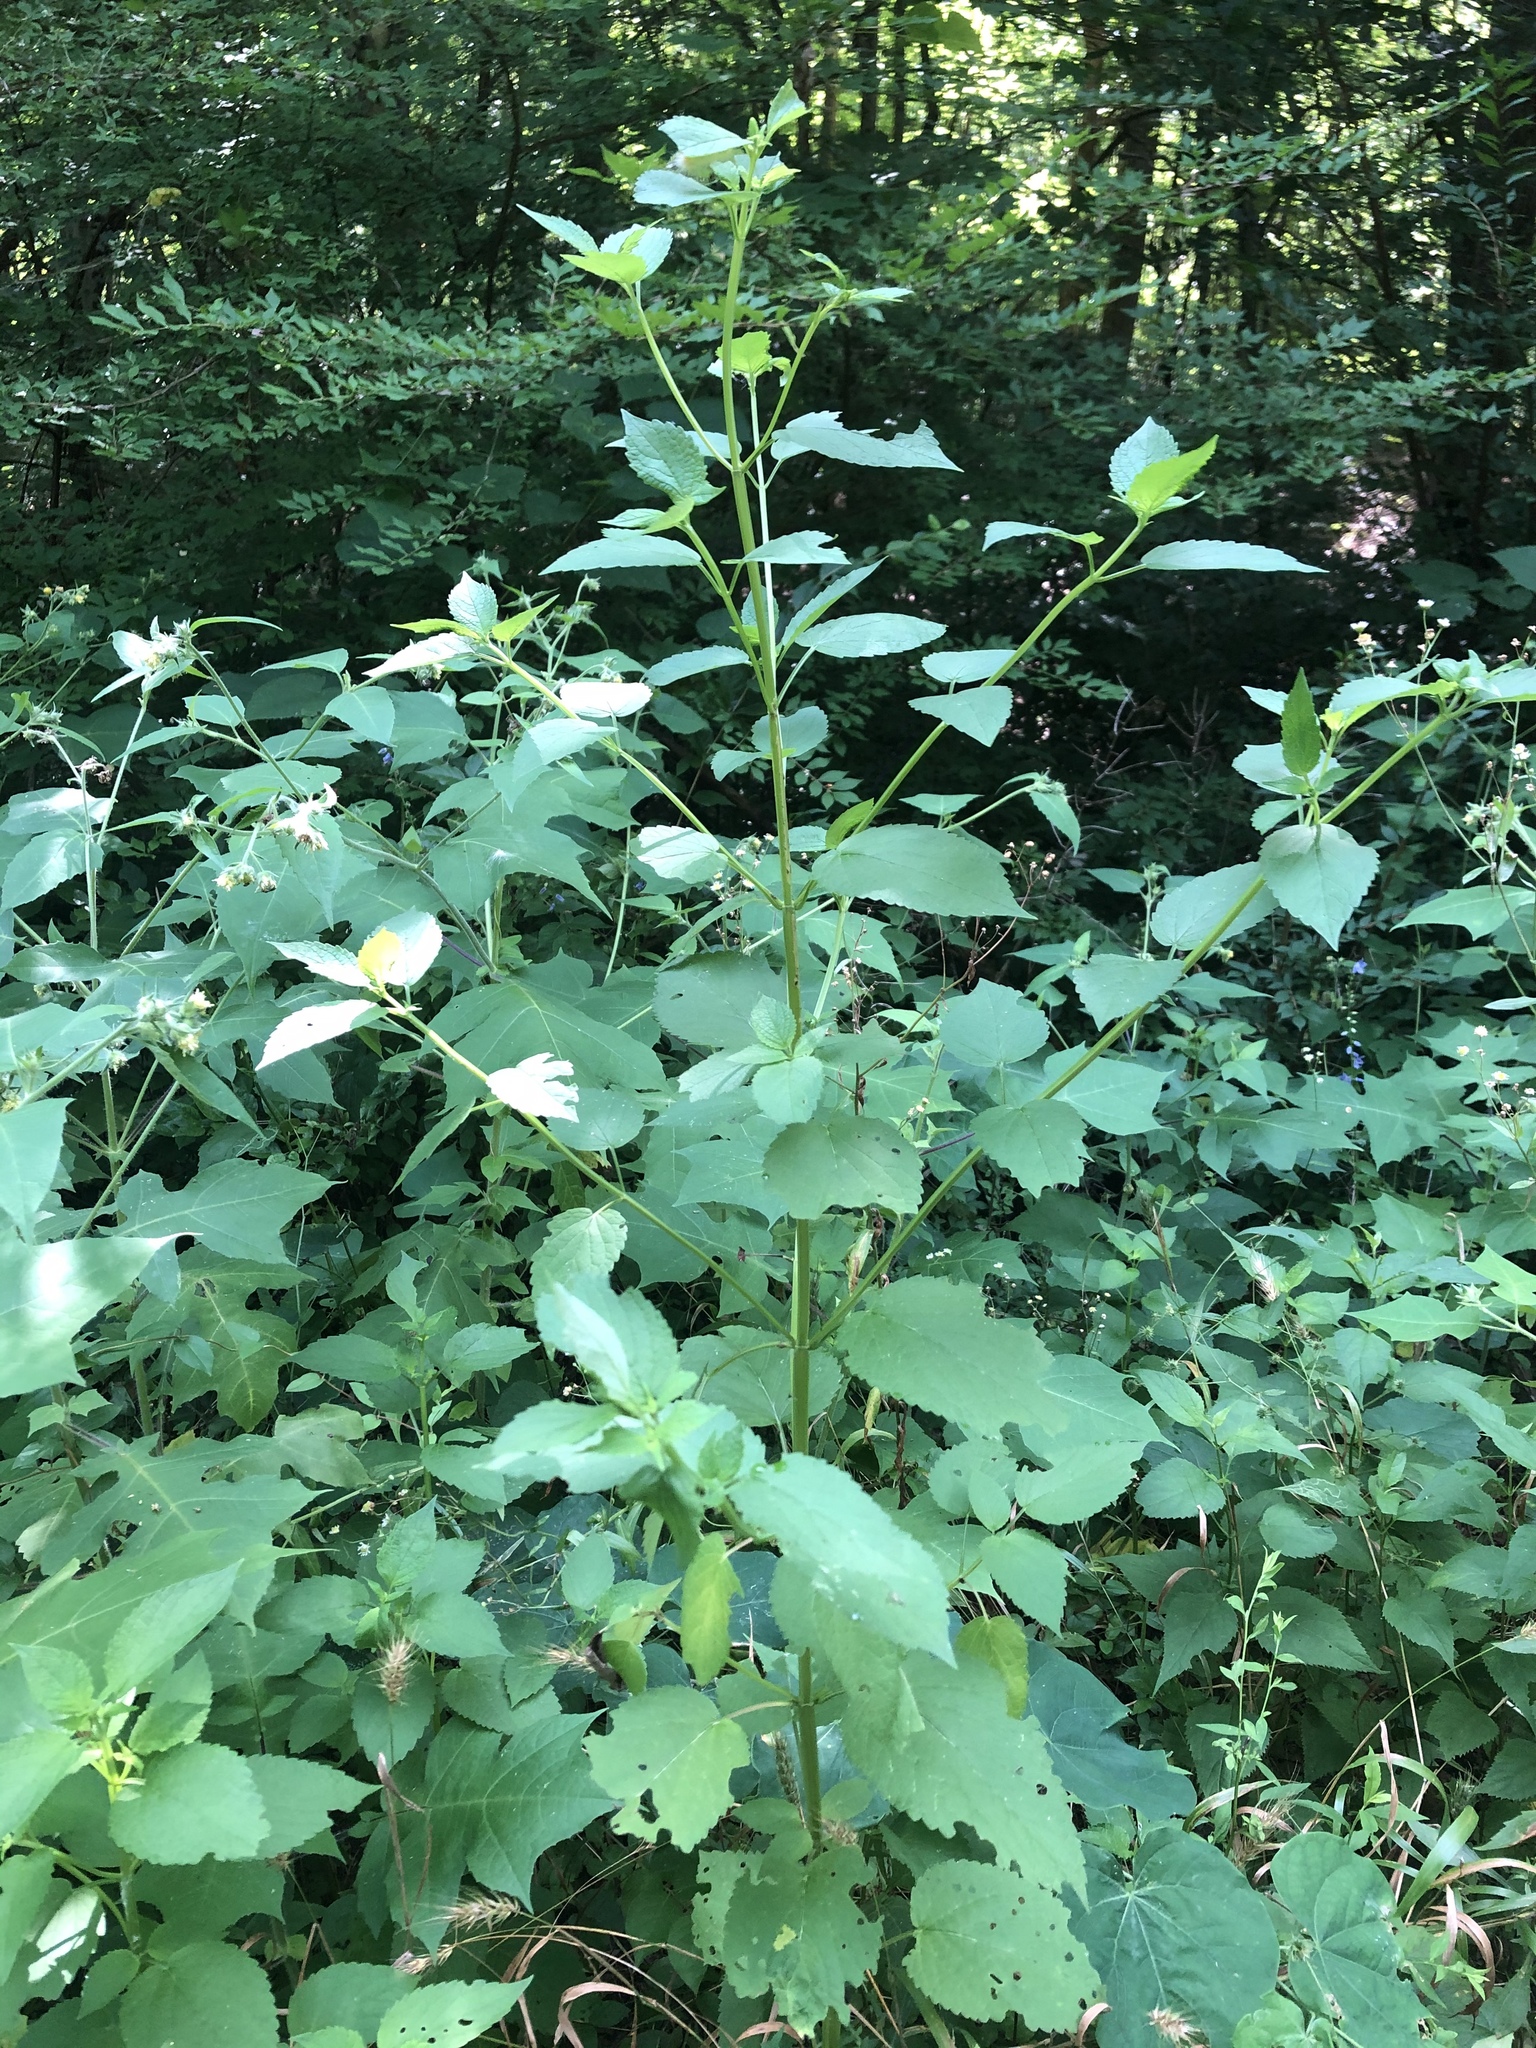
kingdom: Plantae
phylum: Tracheophyta
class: Magnoliopsida
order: Lamiales
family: Lamiaceae
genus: Stachys
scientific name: Stachys cordata
